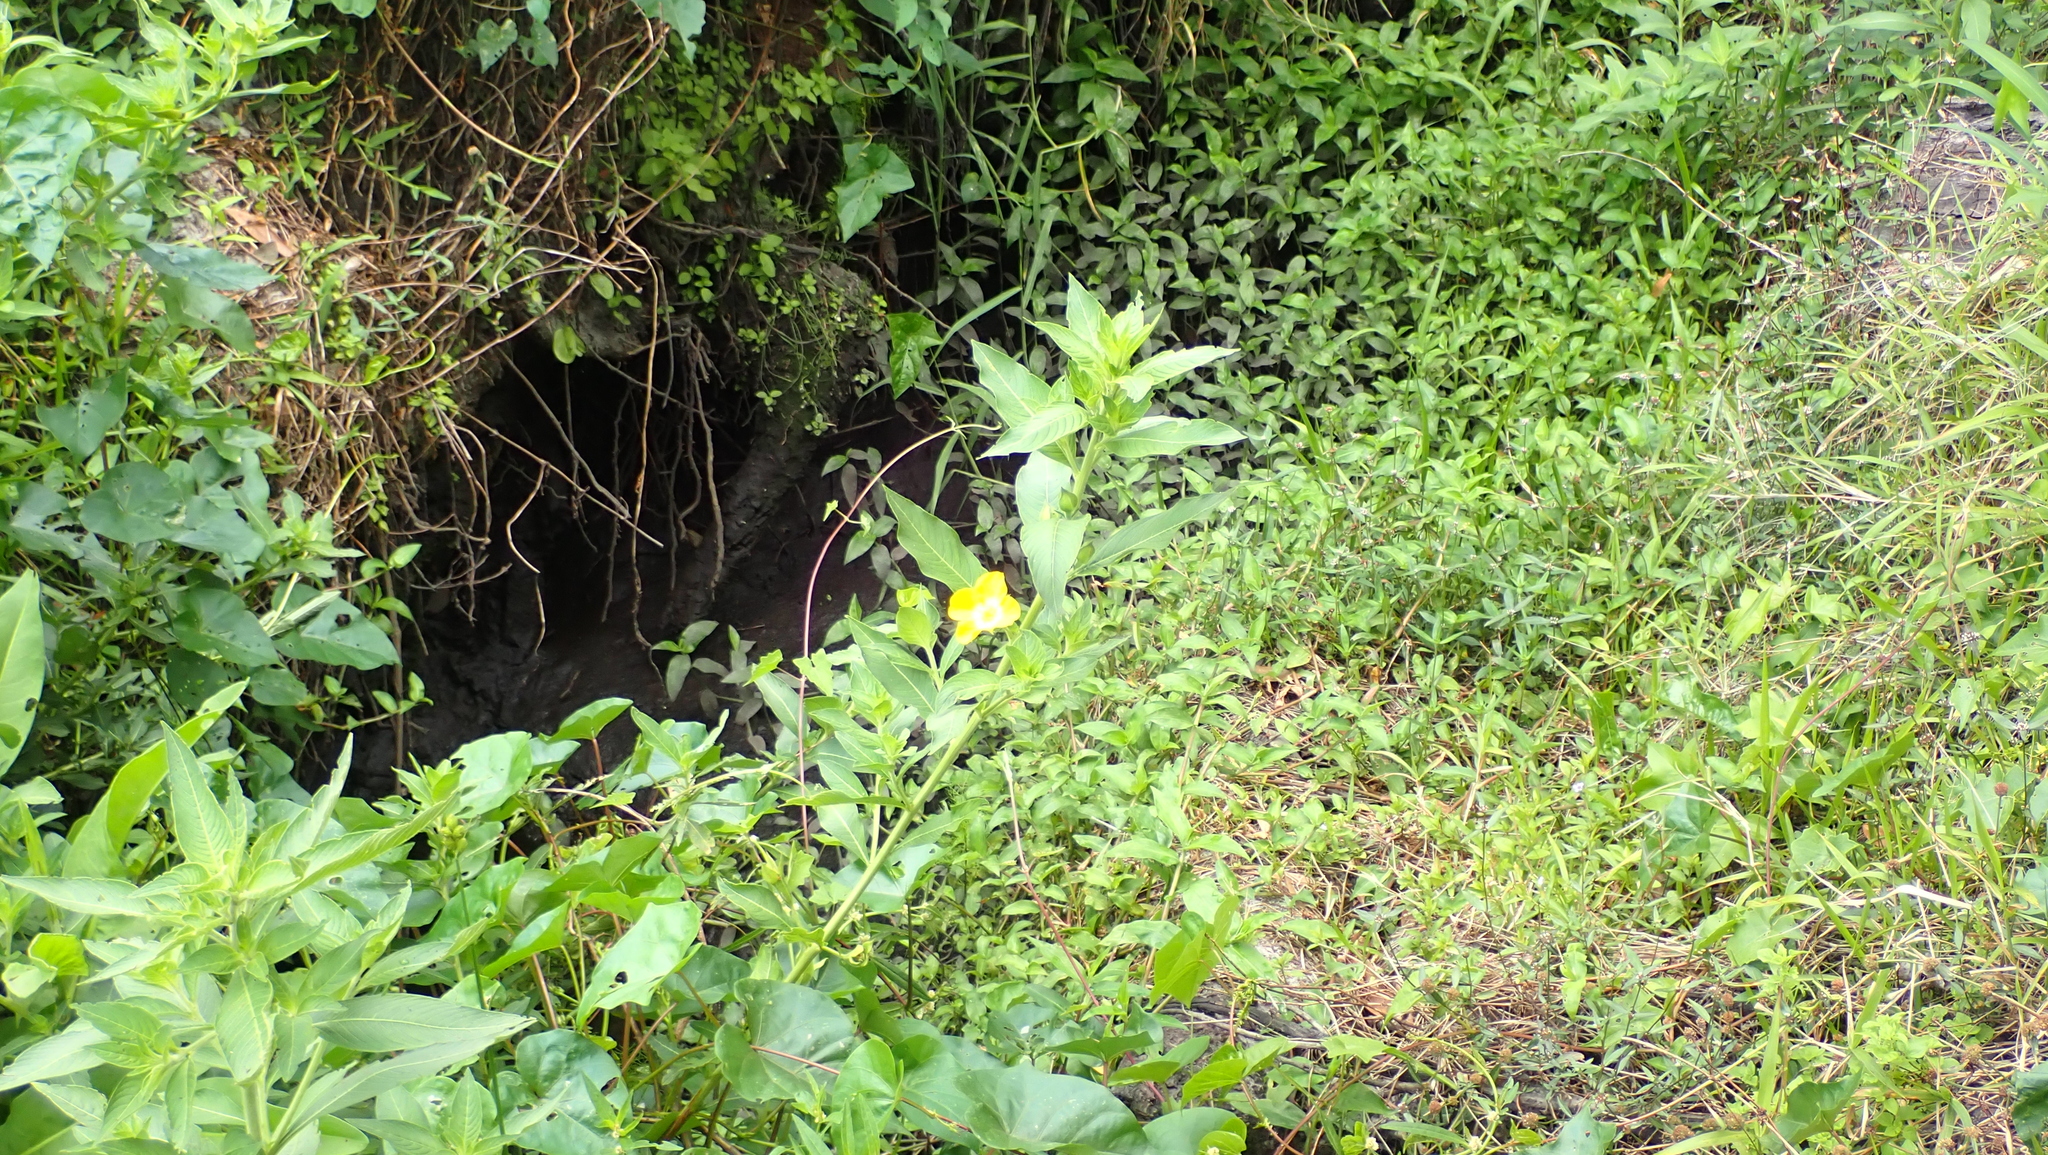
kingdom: Plantae
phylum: Tracheophyta
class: Magnoliopsida
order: Myrtales
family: Onagraceae
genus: Ludwigia
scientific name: Ludwigia peruviana
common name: Peruvian primrose-willow
